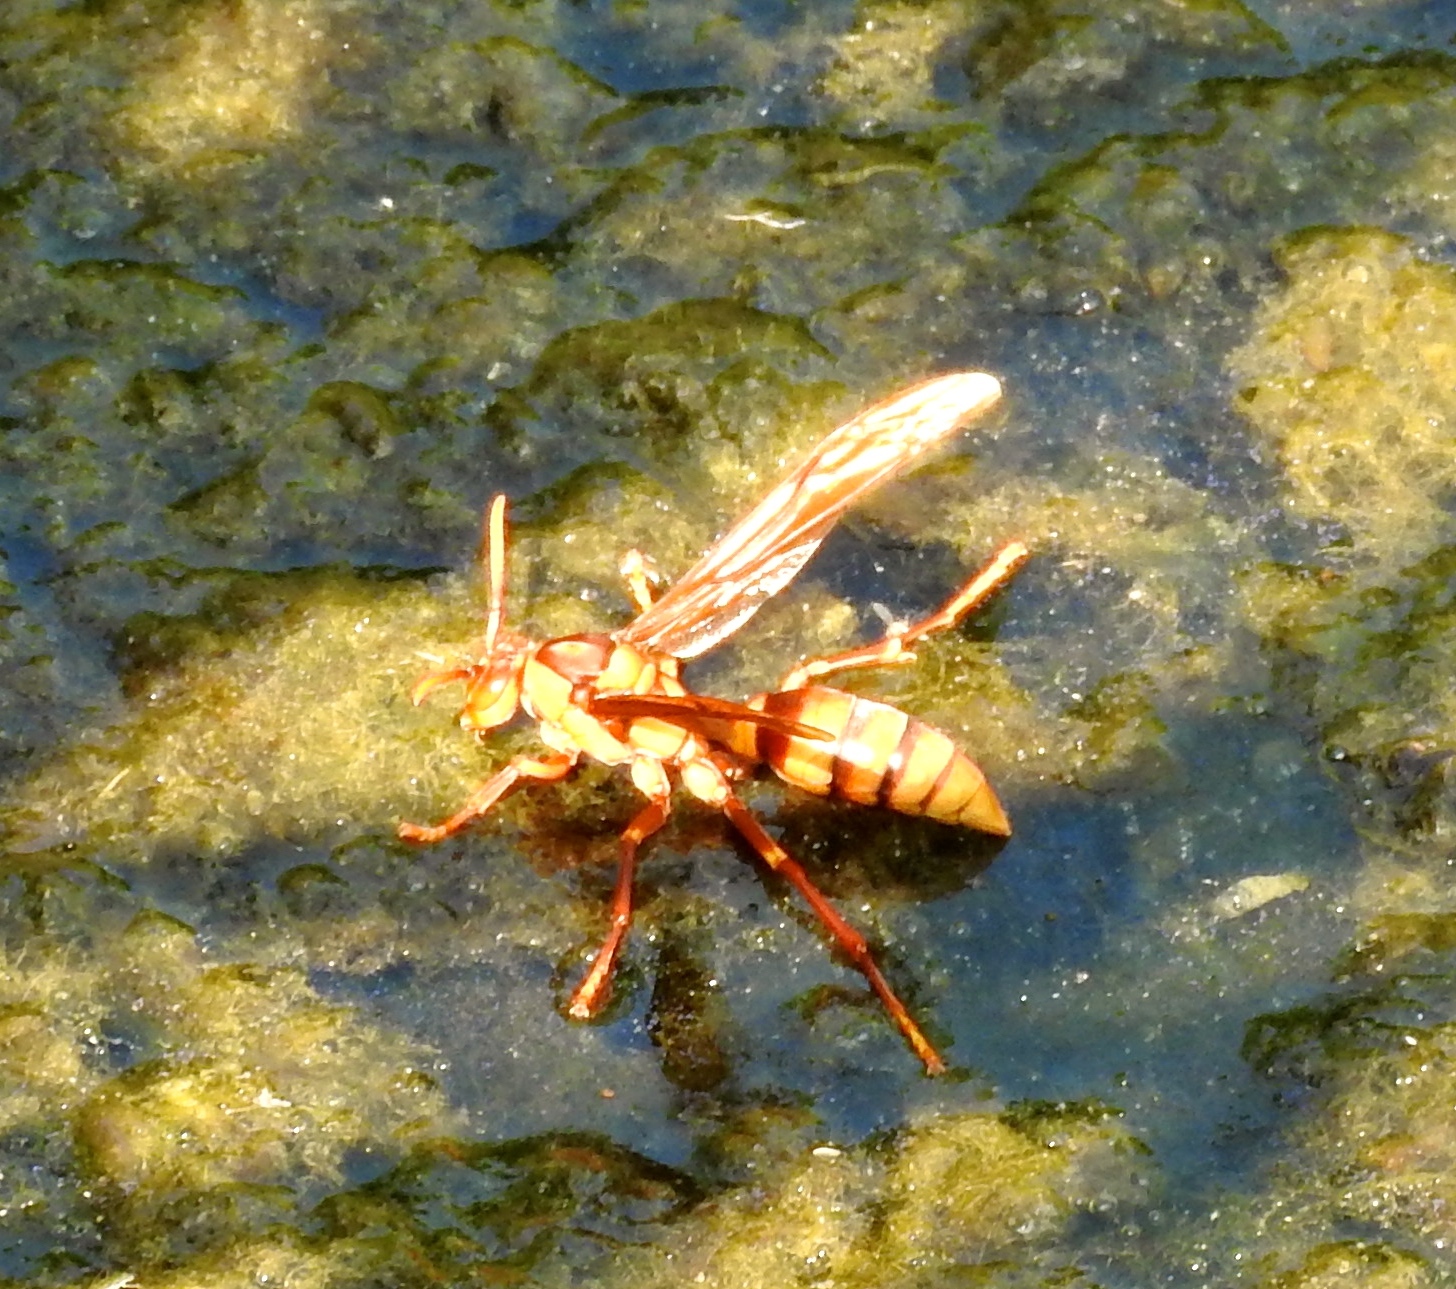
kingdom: Animalia
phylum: Arthropoda
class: Insecta
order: Hymenoptera
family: Eumenidae
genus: Polistes
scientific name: Polistes carnifex
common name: Paper wasp
